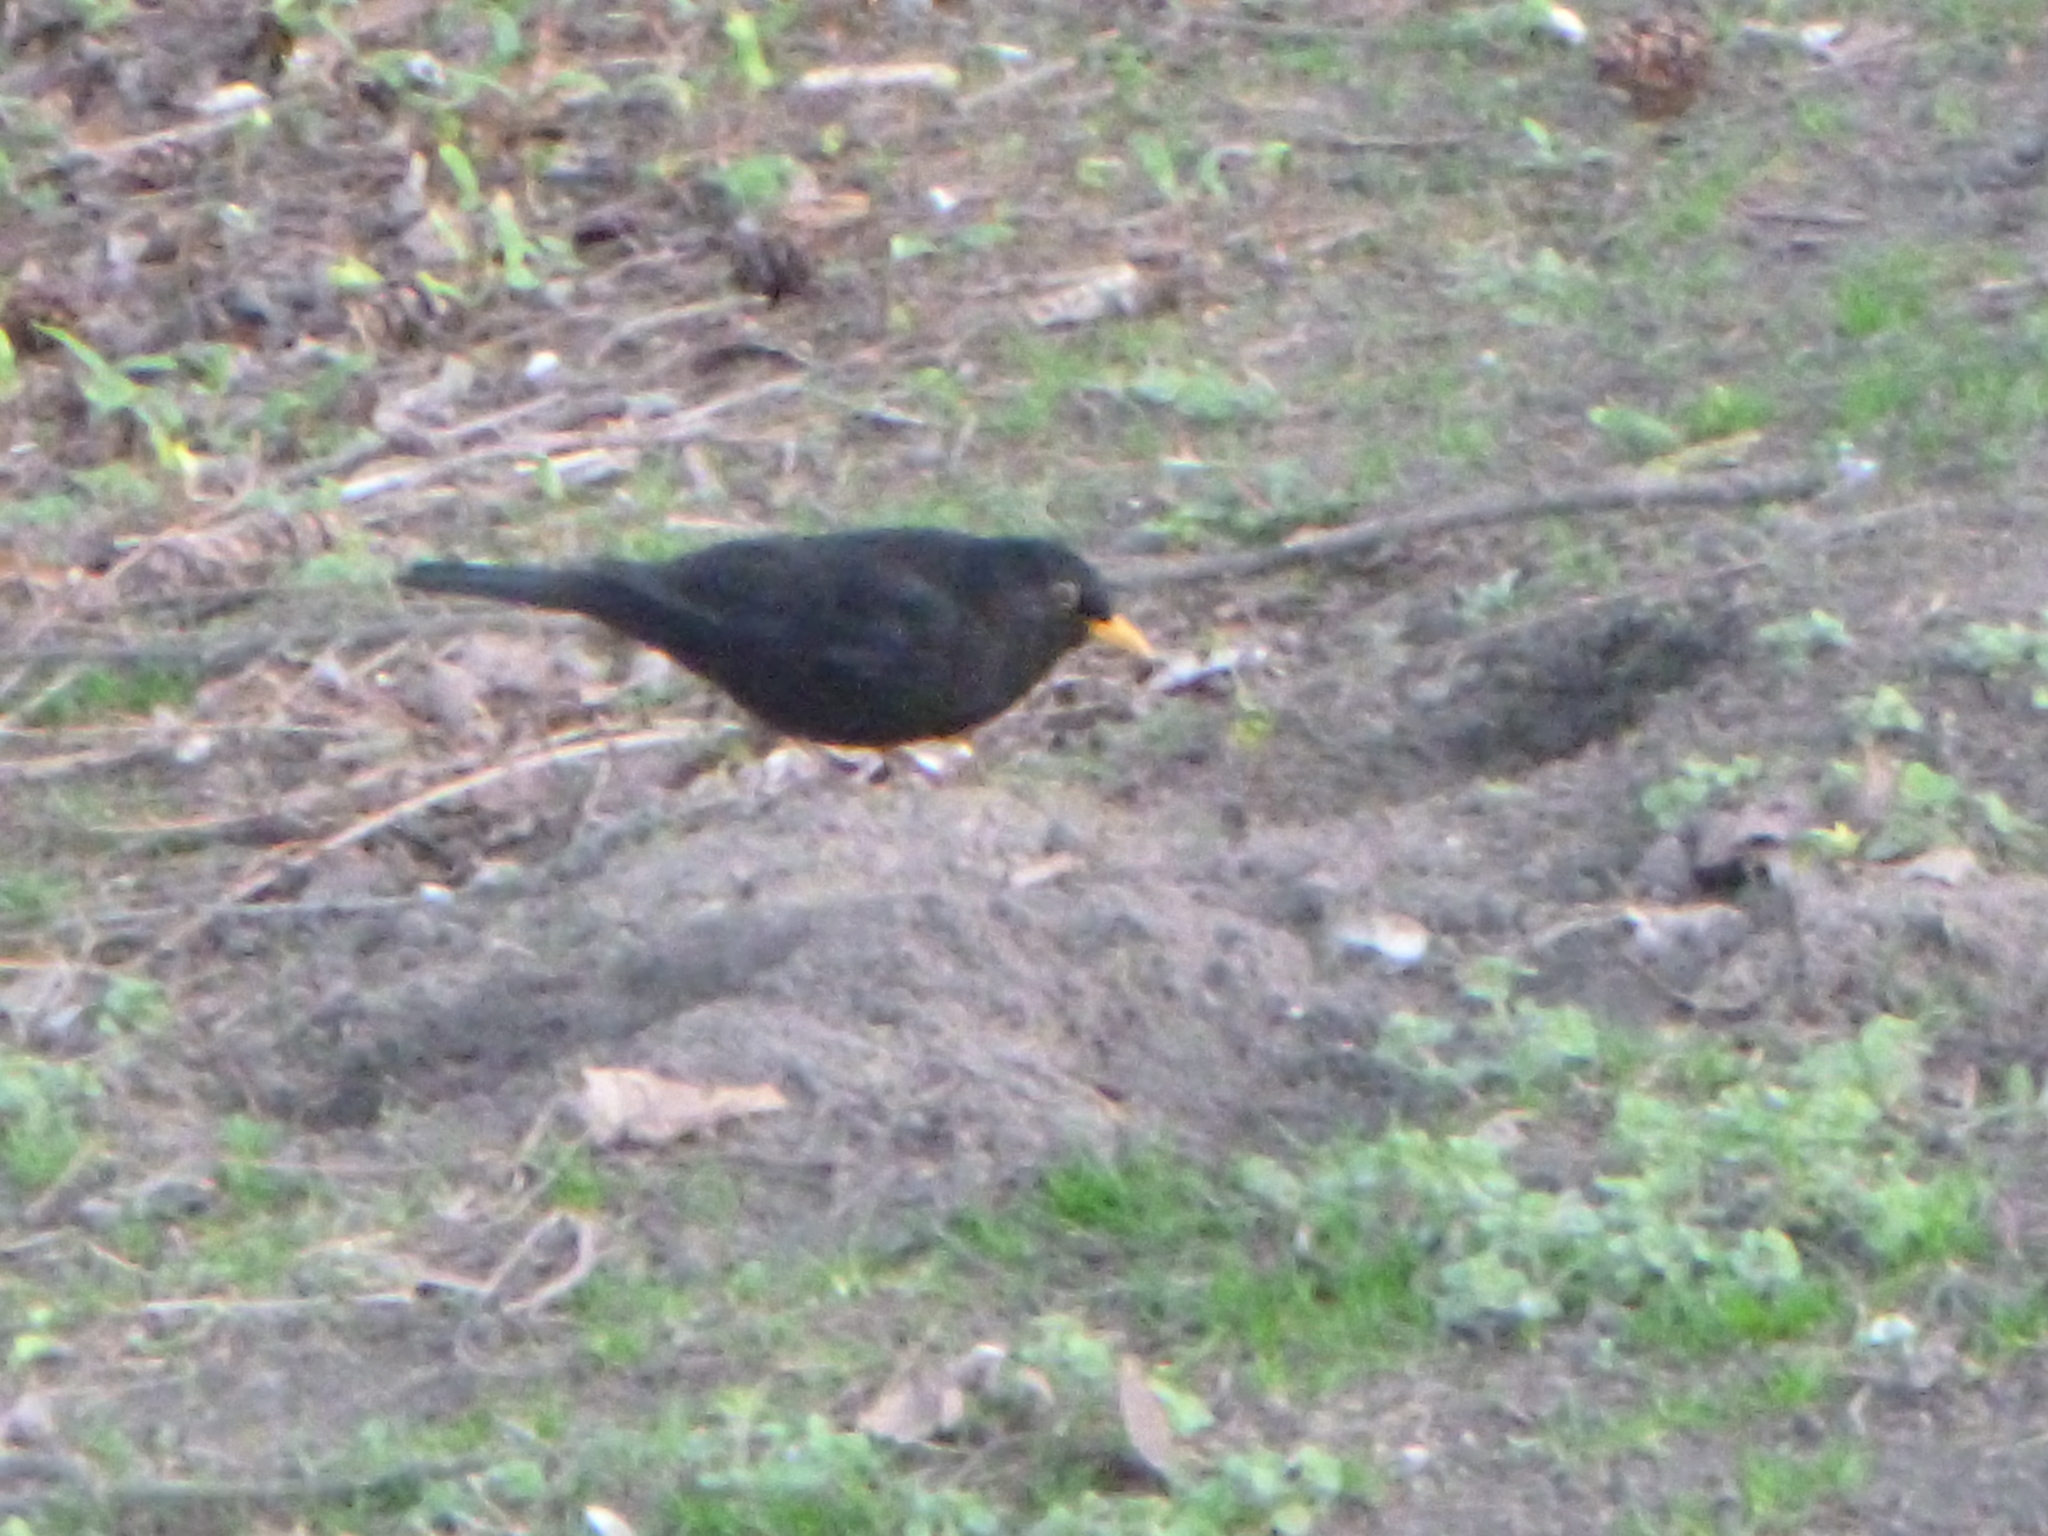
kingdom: Animalia
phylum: Chordata
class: Aves
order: Passeriformes
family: Turdidae
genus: Turdus
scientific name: Turdus merula
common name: Common blackbird
